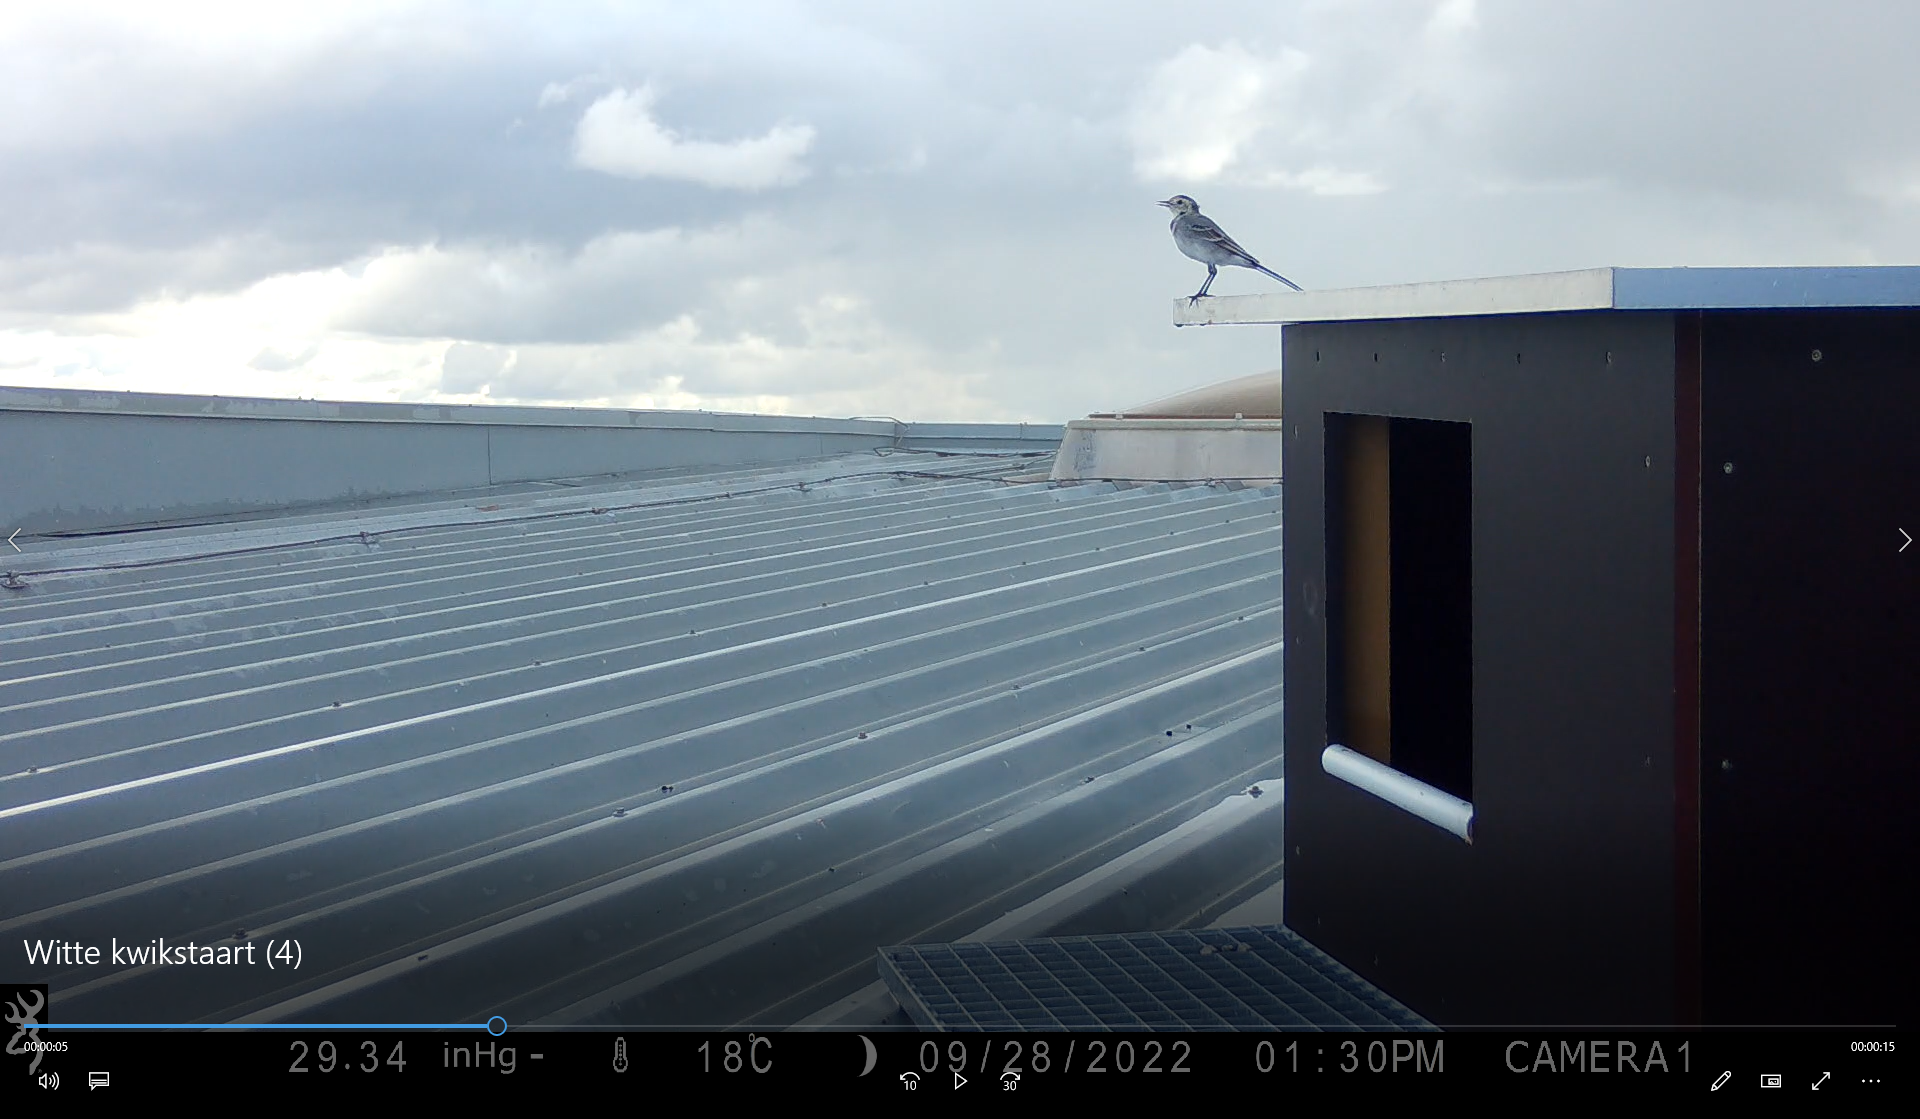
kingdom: Animalia
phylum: Chordata
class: Aves
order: Passeriformes
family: Motacillidae
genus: Motacilla
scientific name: Motacilla alba
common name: White wagtail
